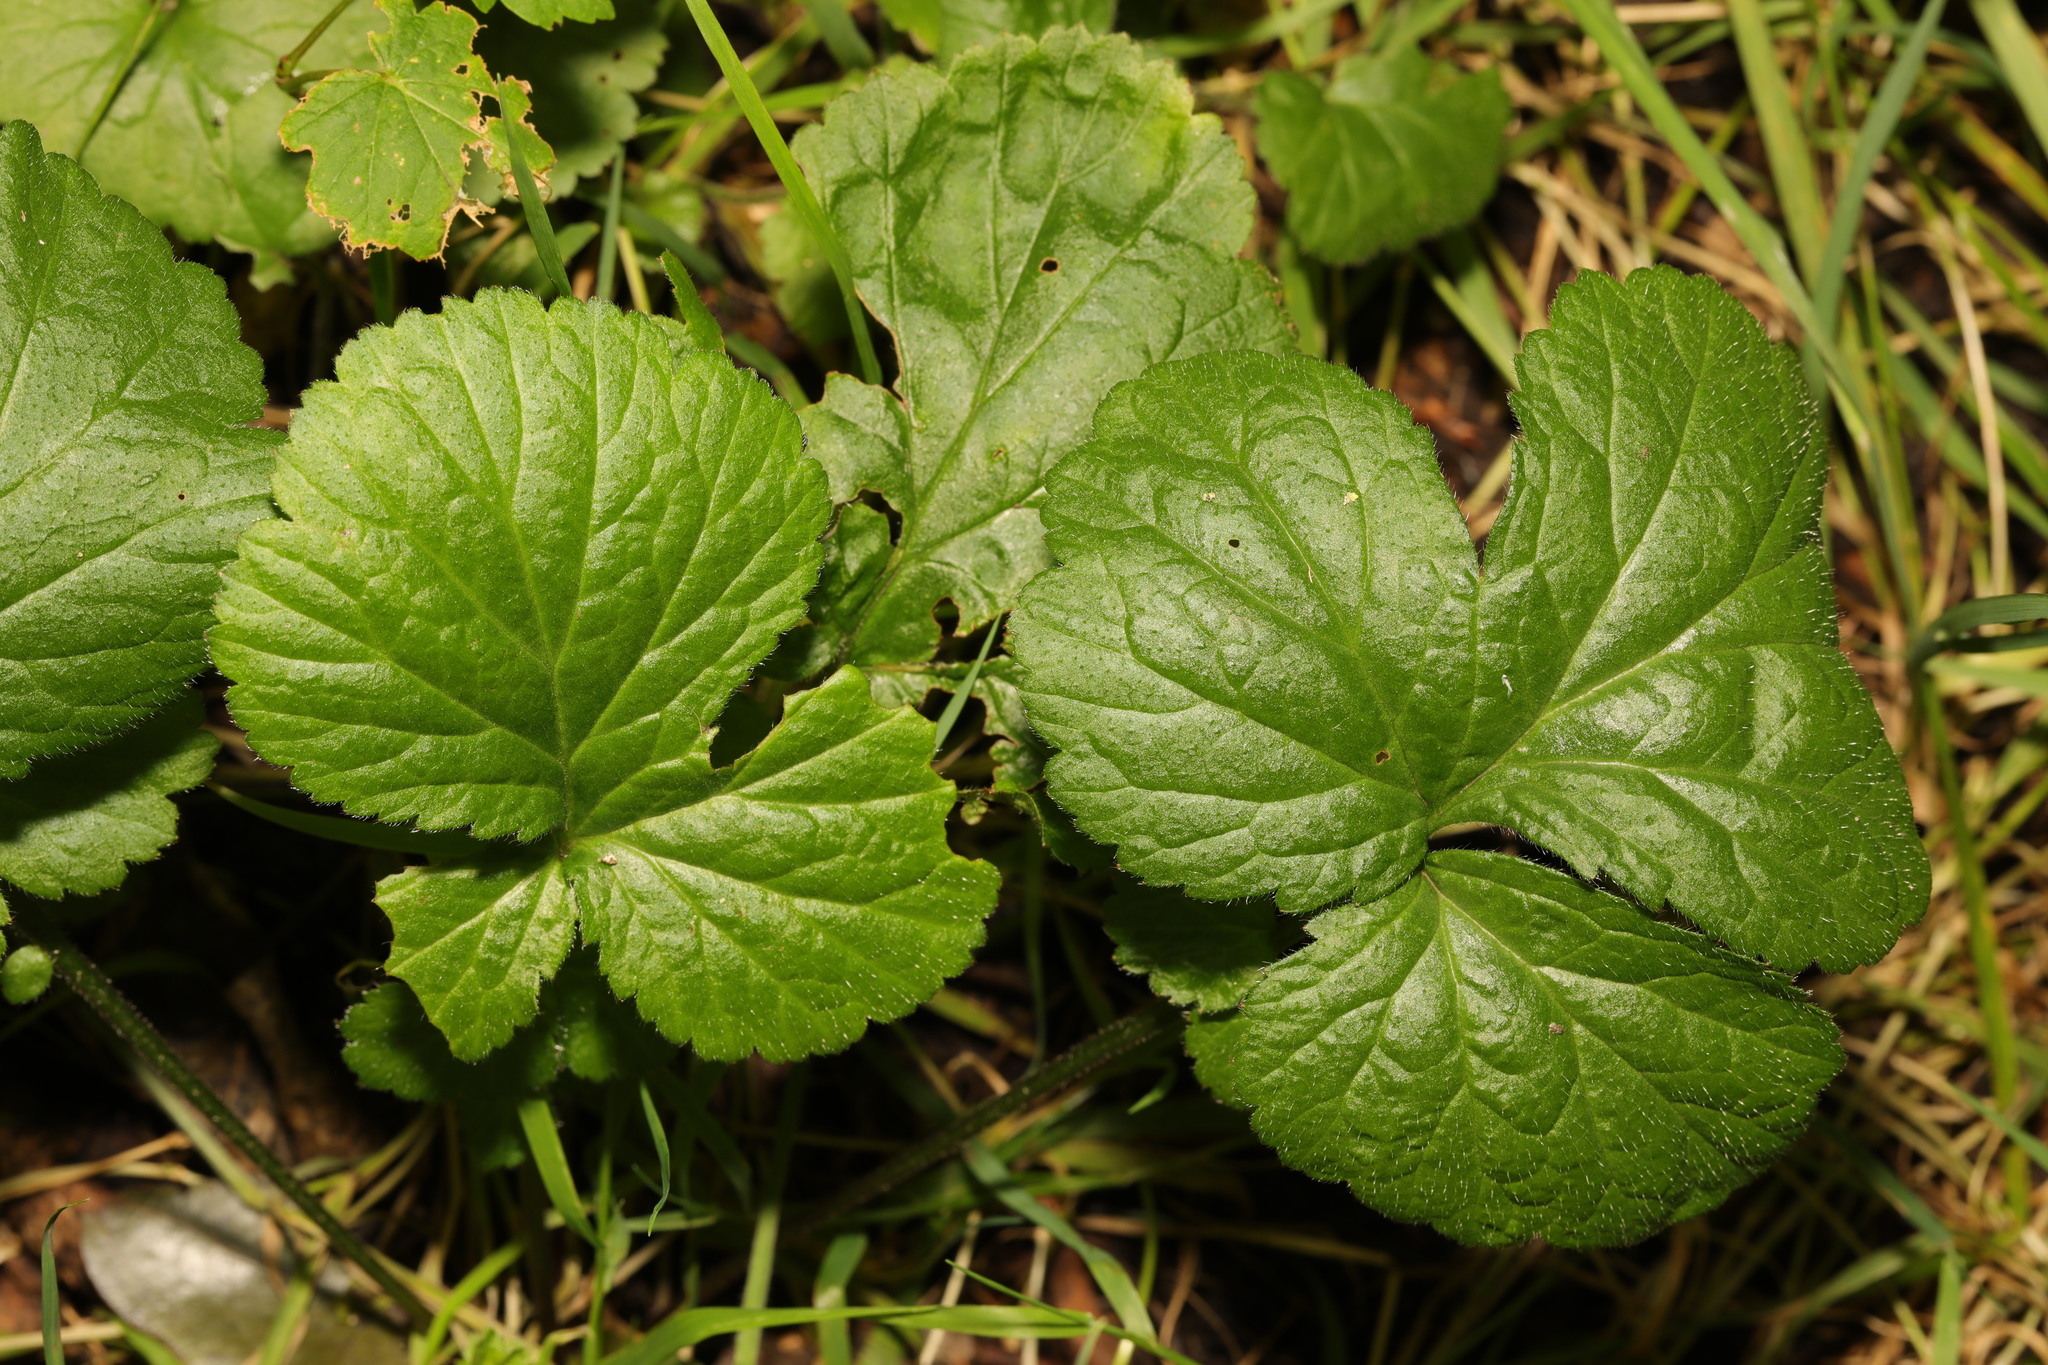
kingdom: Plantae
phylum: Tracheophyta
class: Magnoliopsida
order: Rosales
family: Rosaceae
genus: Geum
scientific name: Geum urbanum
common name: Wood avens
